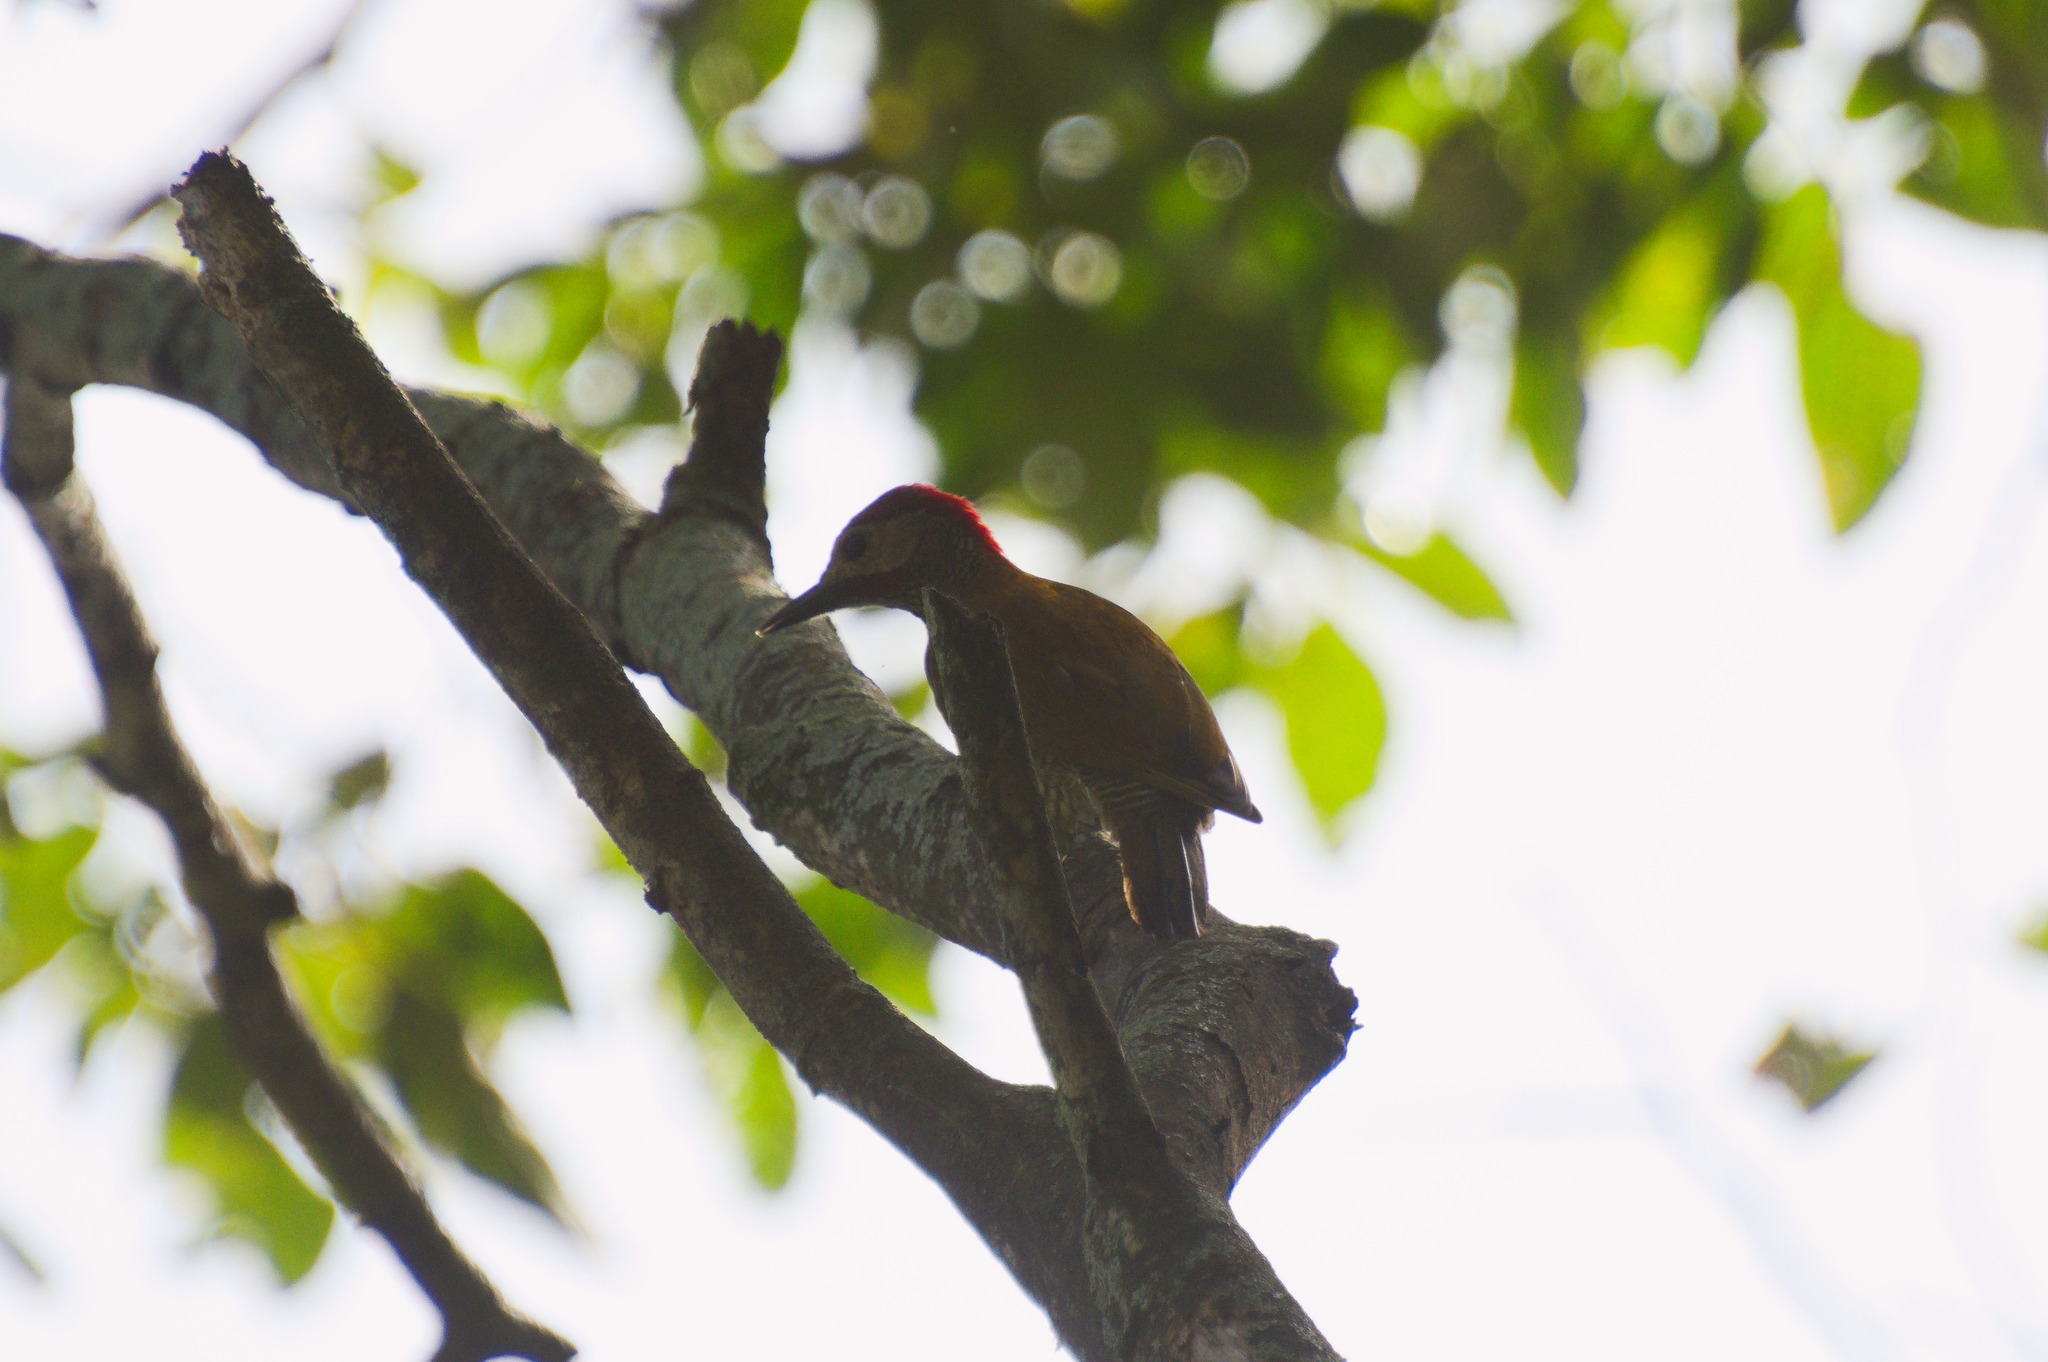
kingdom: Animalia
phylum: Chordata
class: Aves
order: Piciformes
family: Picidae
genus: Colaptes
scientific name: Colaptes rubiginosus
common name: Golden-olive woodpecker
